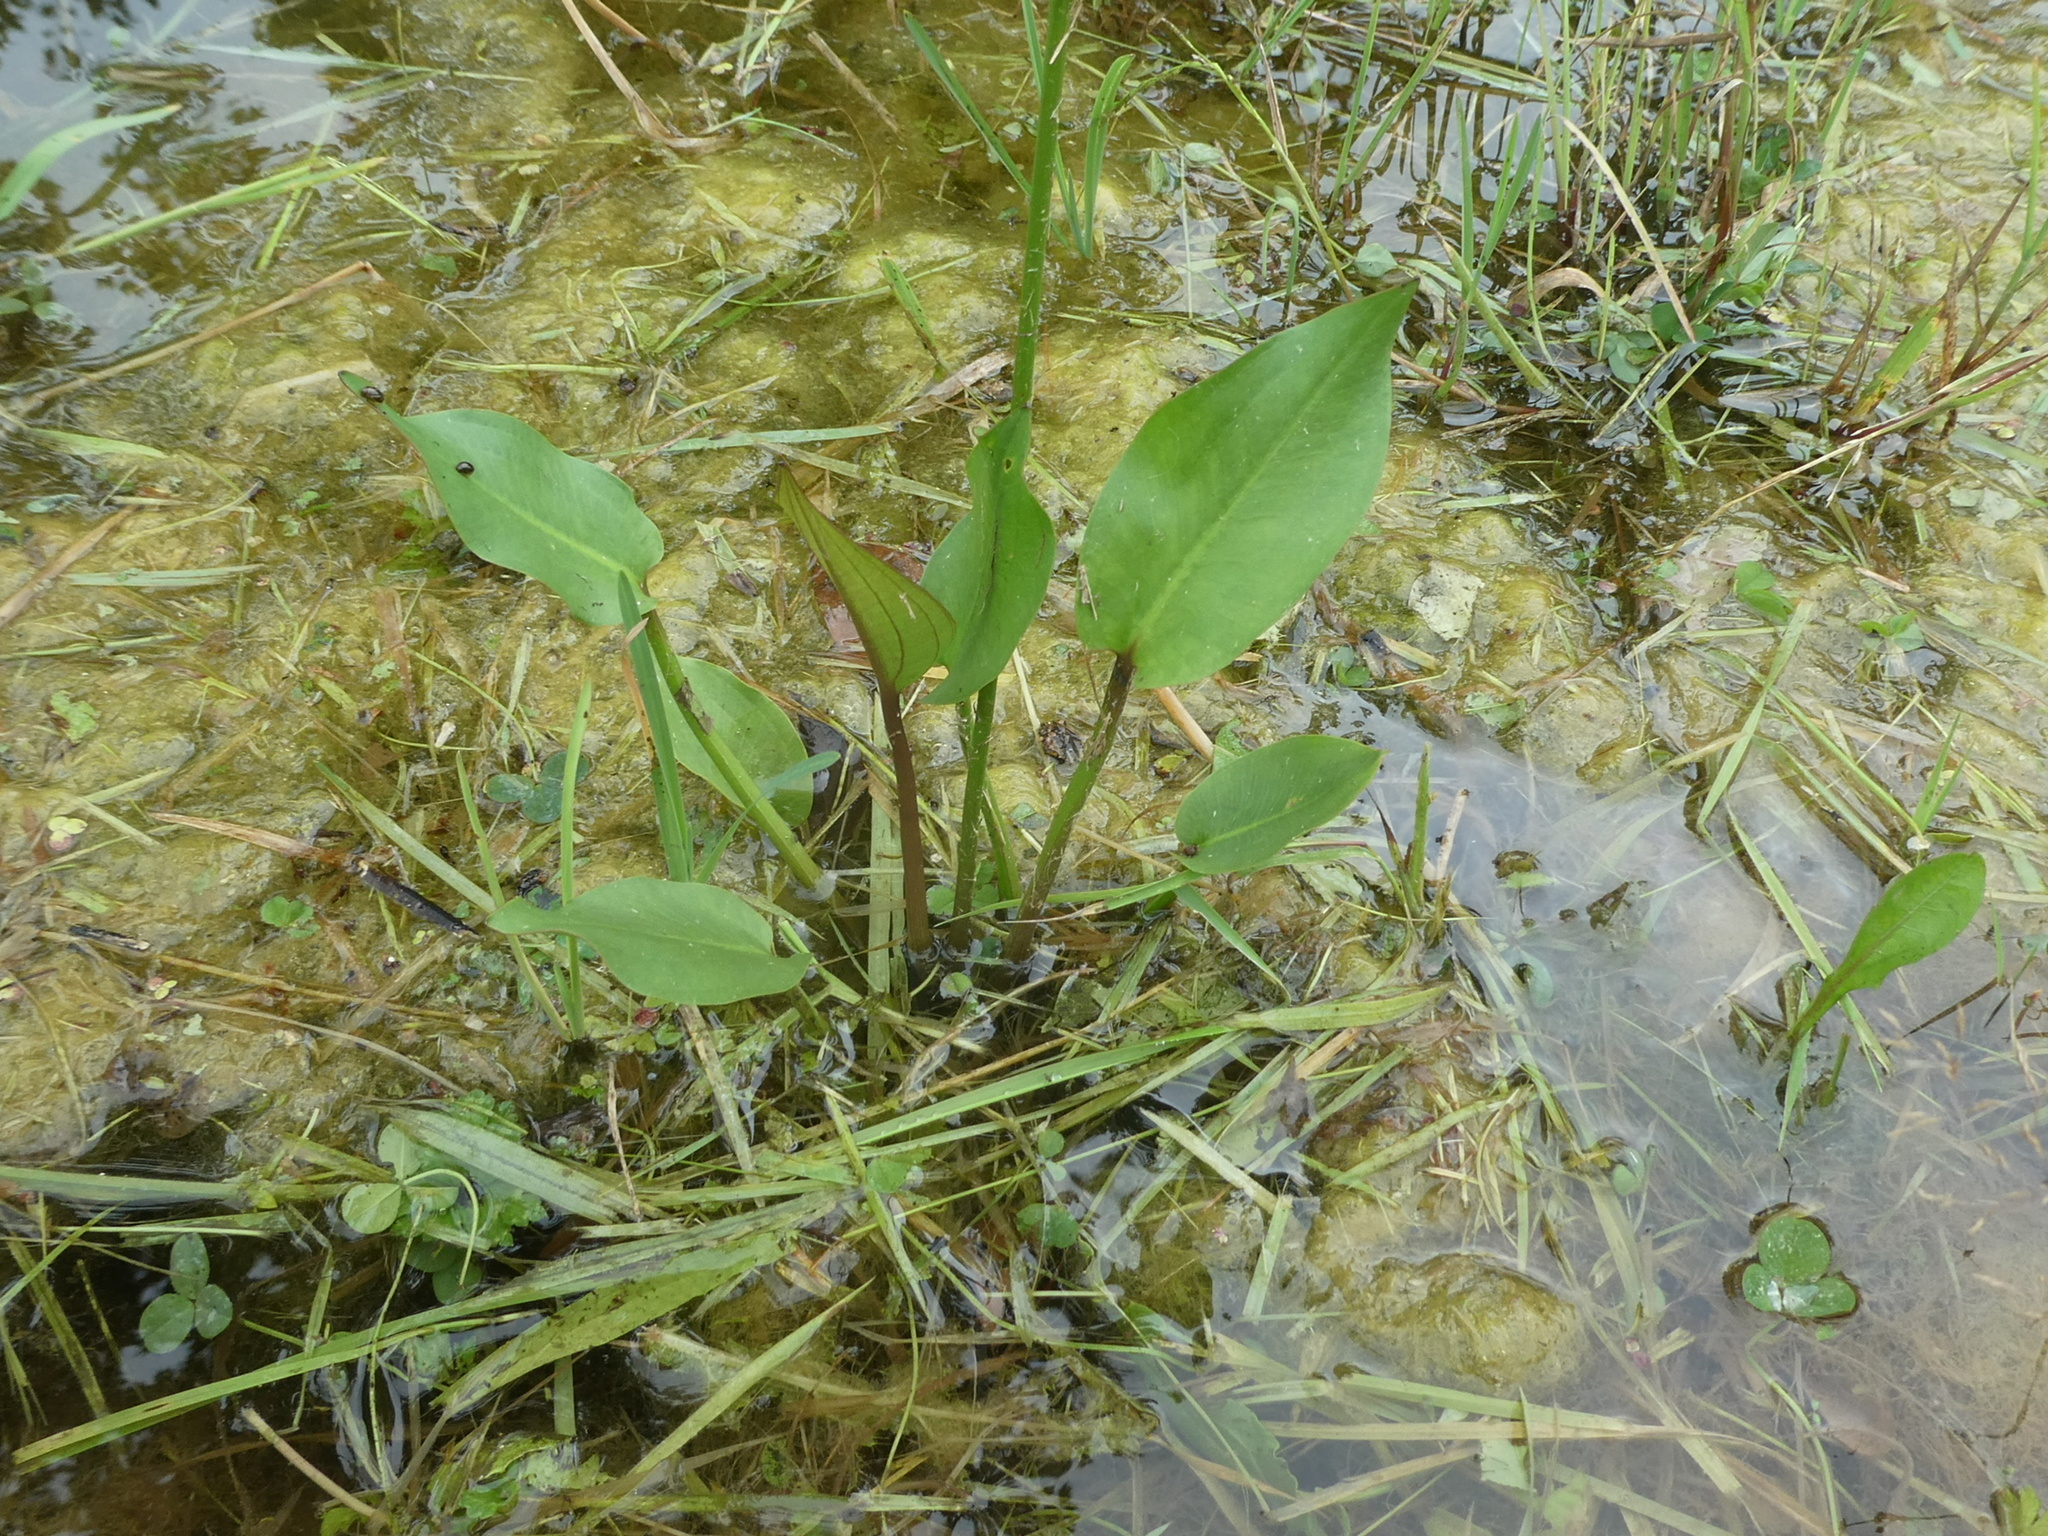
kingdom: Plantae
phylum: Tracheophyta
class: Liliopsida
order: Alismatales
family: Alismataceae
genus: Alisma
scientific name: Alisma plantago-aquatica
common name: Water-plantain
